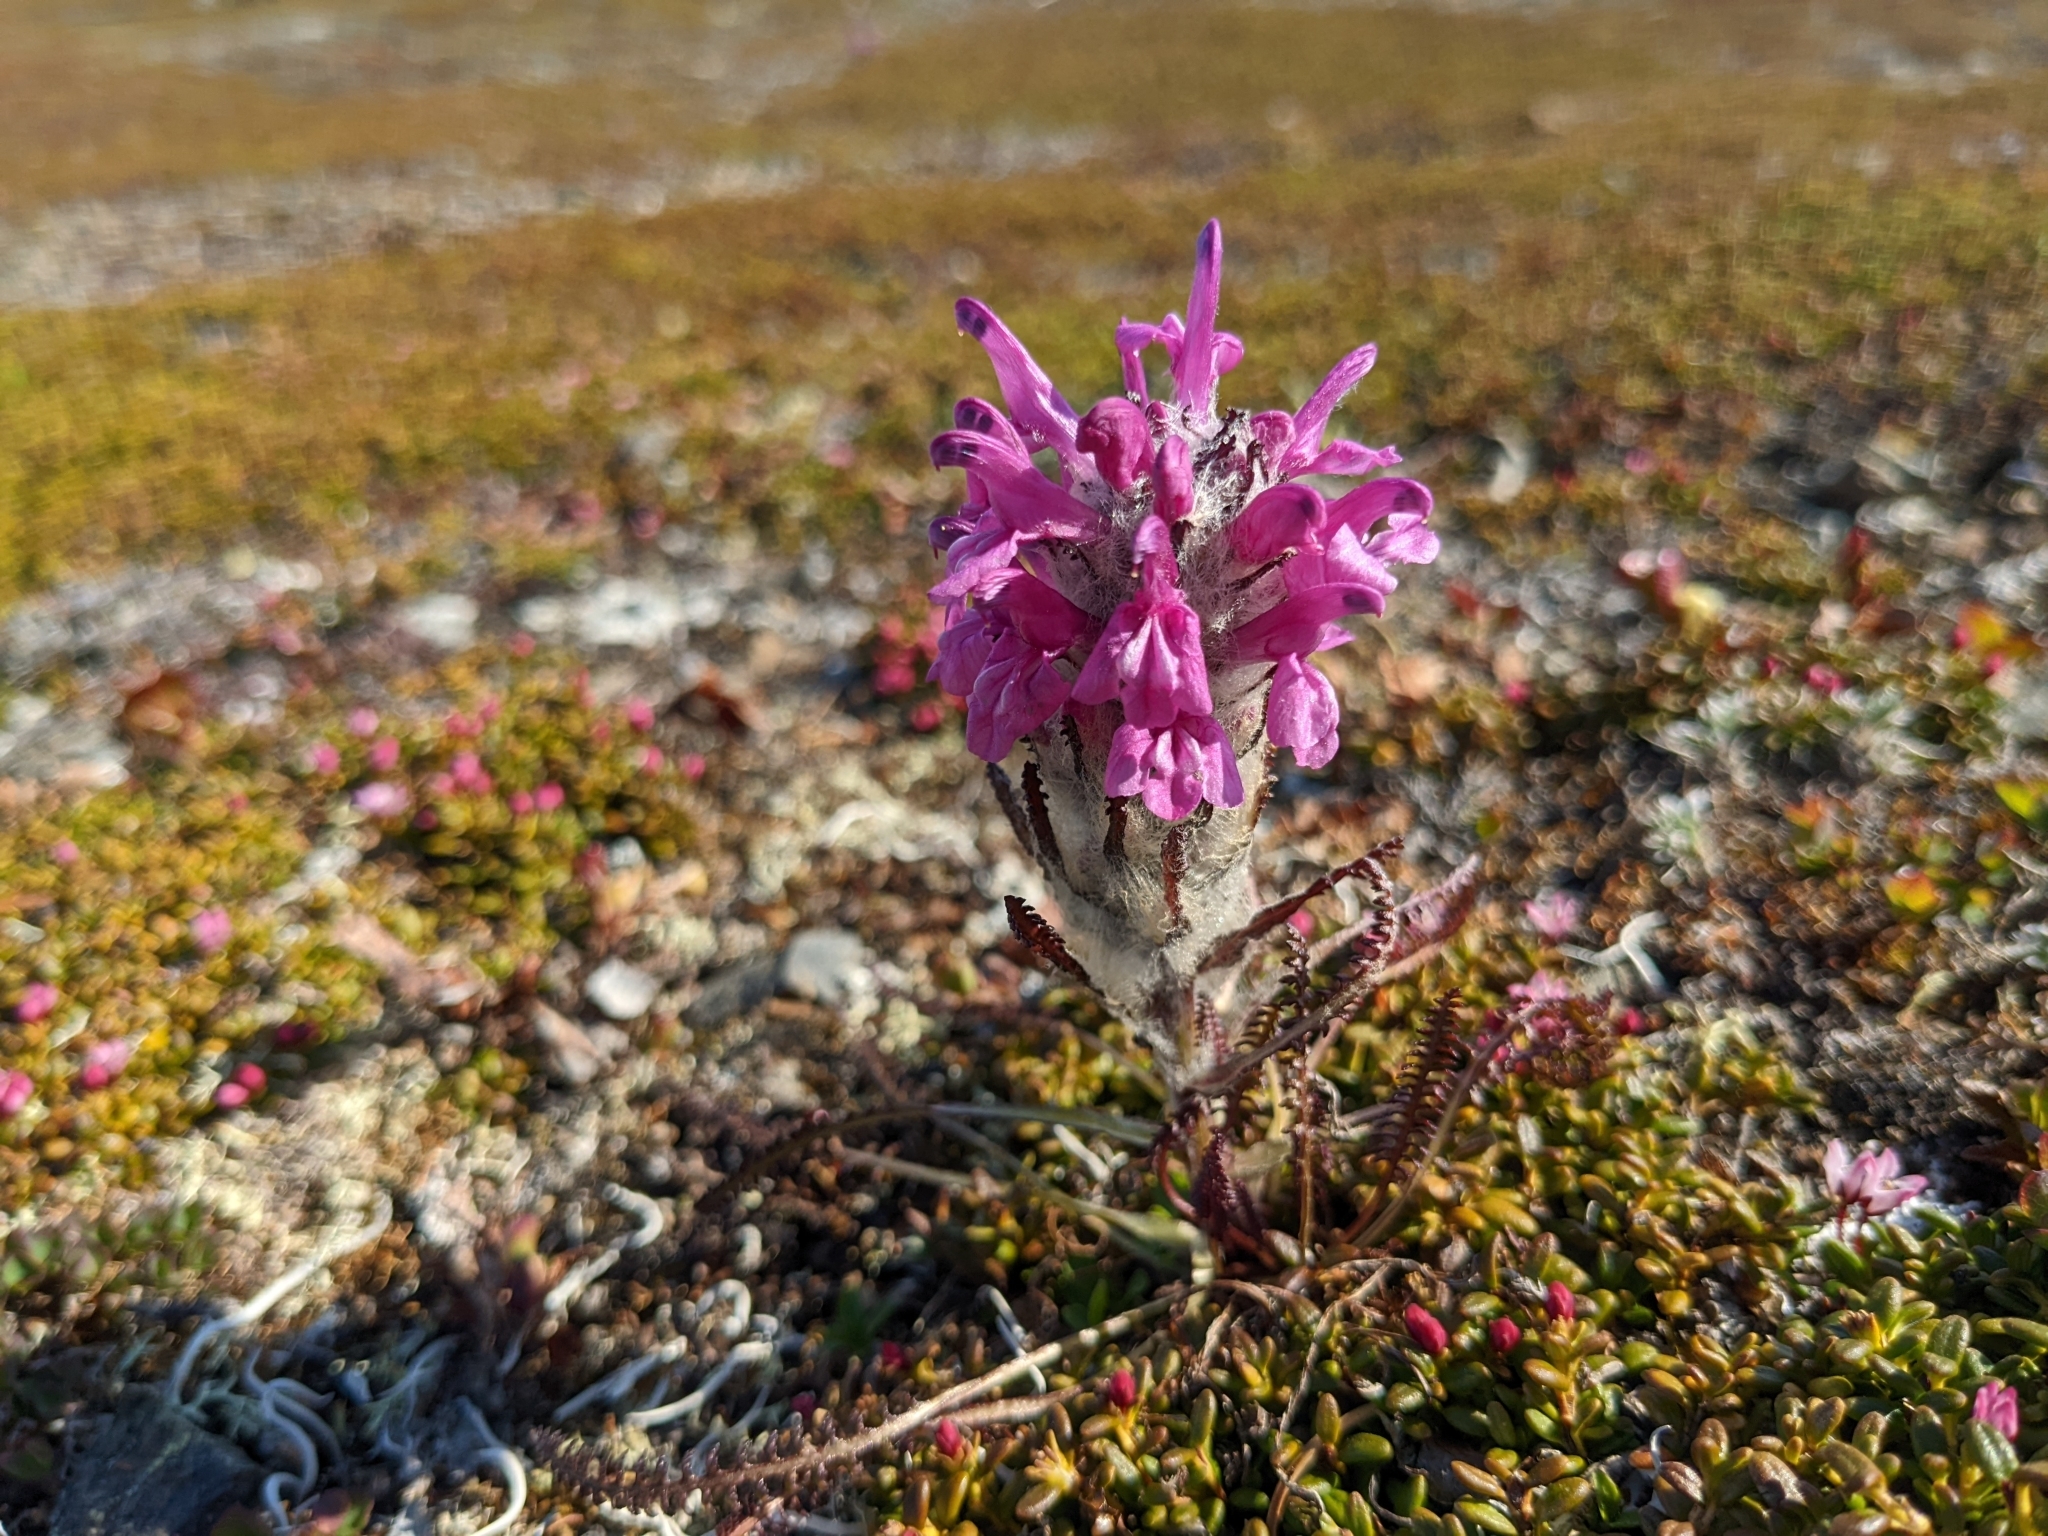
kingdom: Plantae
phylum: Tracheophyta
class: Magnoliopsida
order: Lamiales
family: Orobanchaceae
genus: Pedicularis
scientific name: Pedicularis lanata
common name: Woolly lousewort
